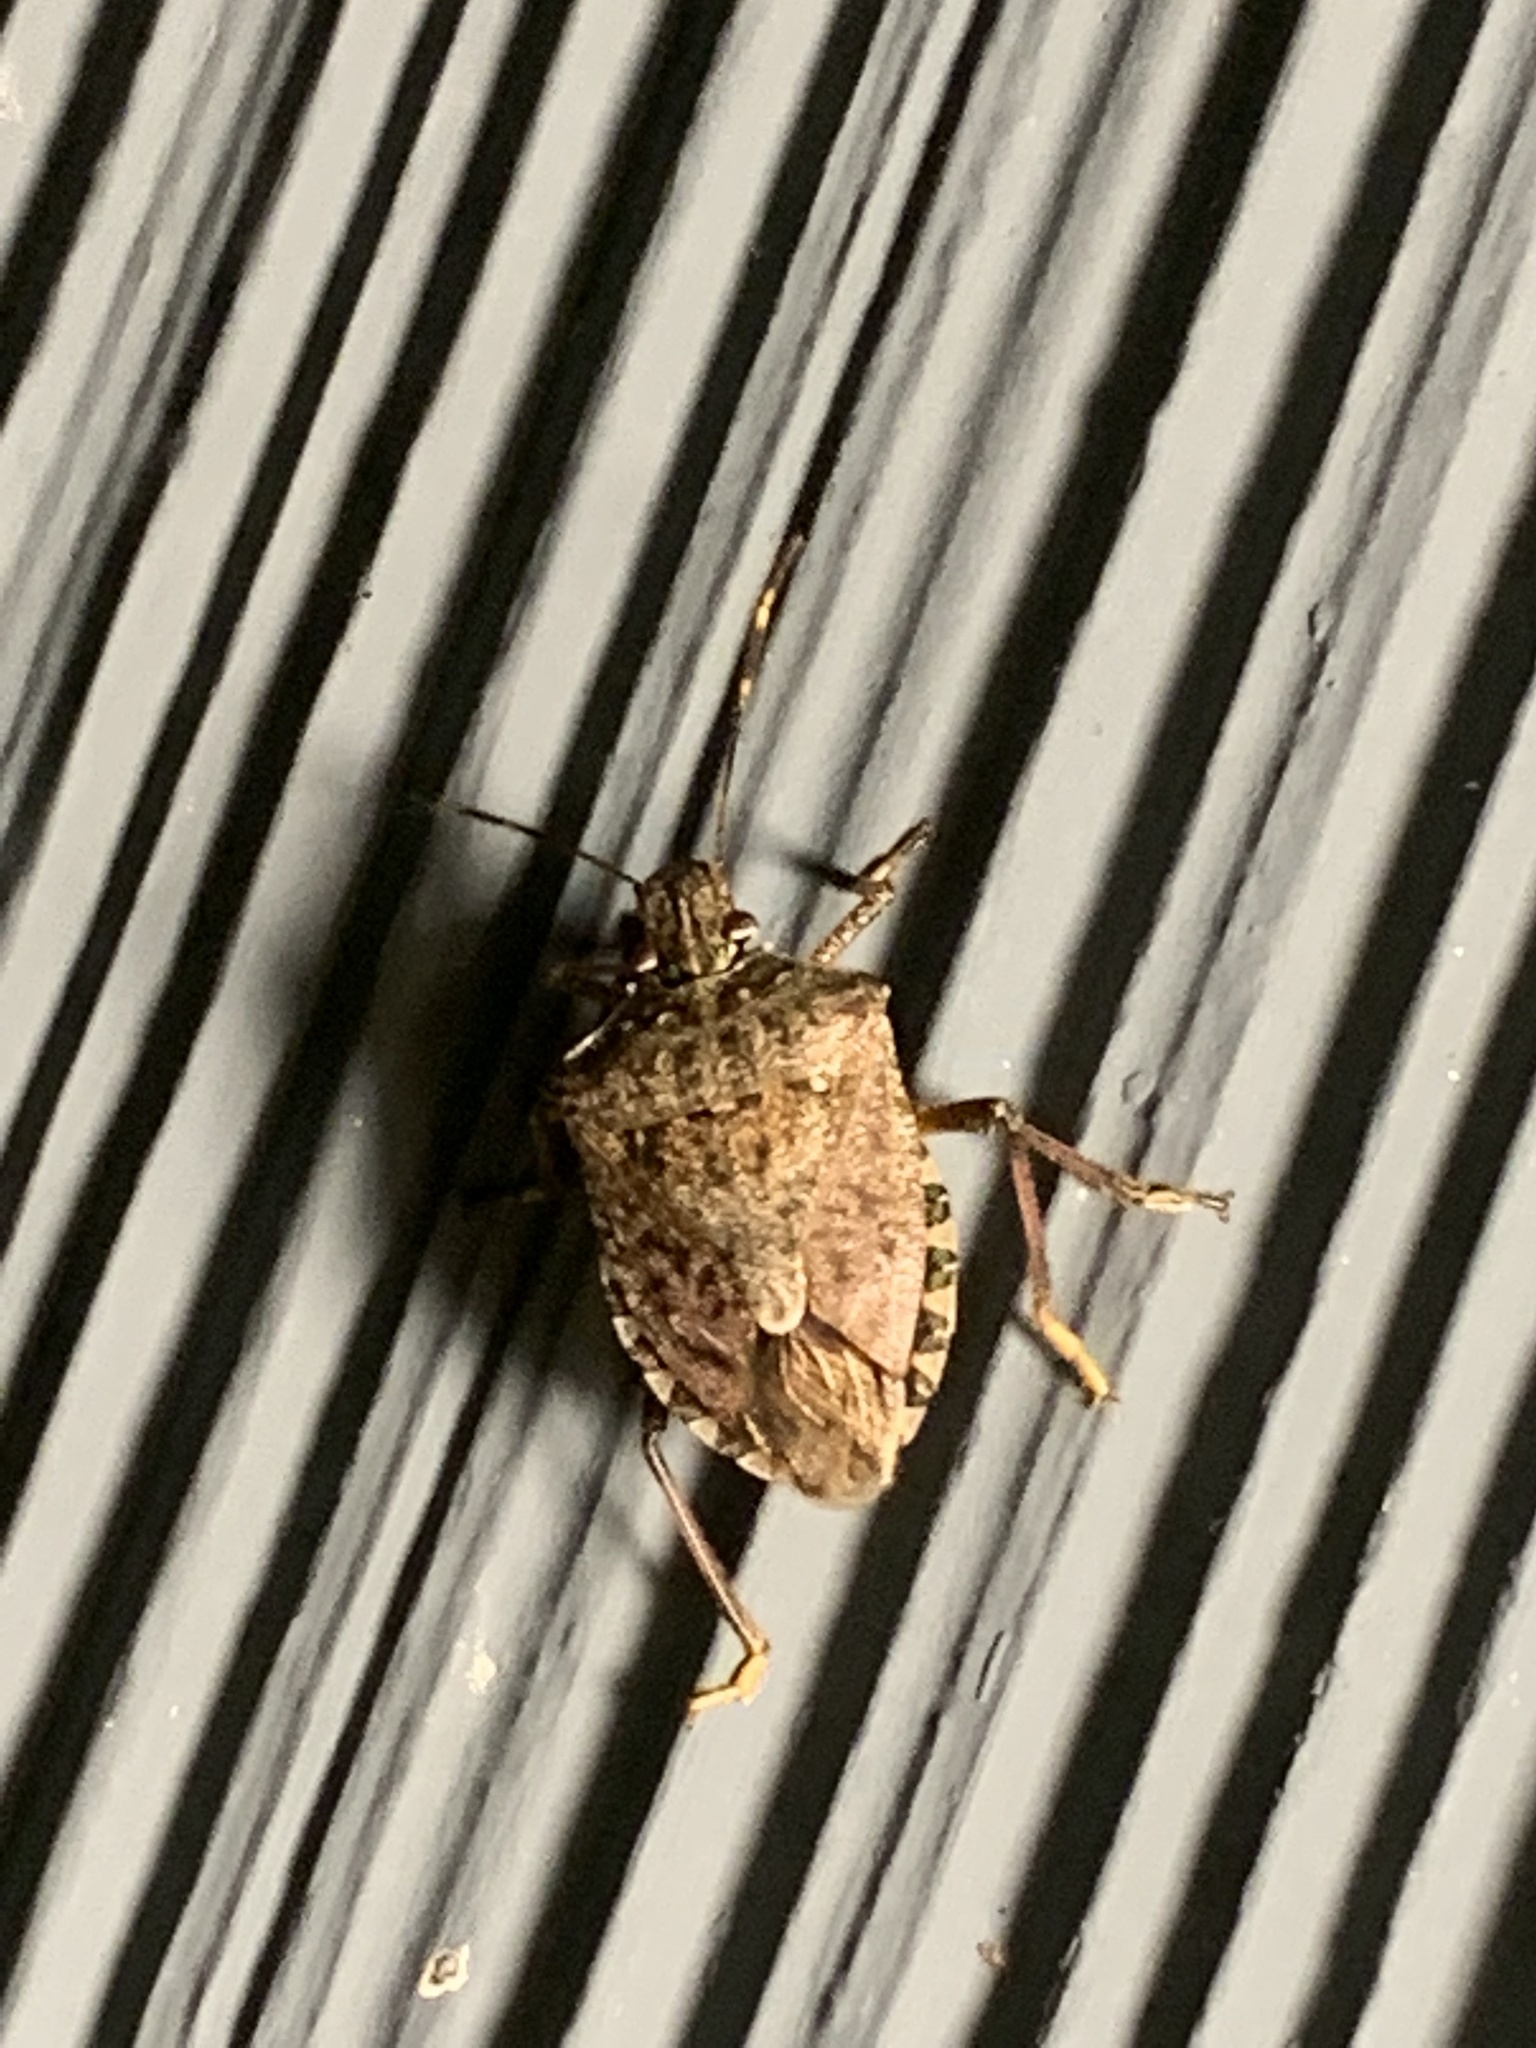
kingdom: Animalia
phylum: Arthropoda
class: Insecta
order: Hemiptera
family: Pentatomidae
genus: Halyomorpha
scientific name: Halyomorpha halys
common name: Brown marmorated stink bug
